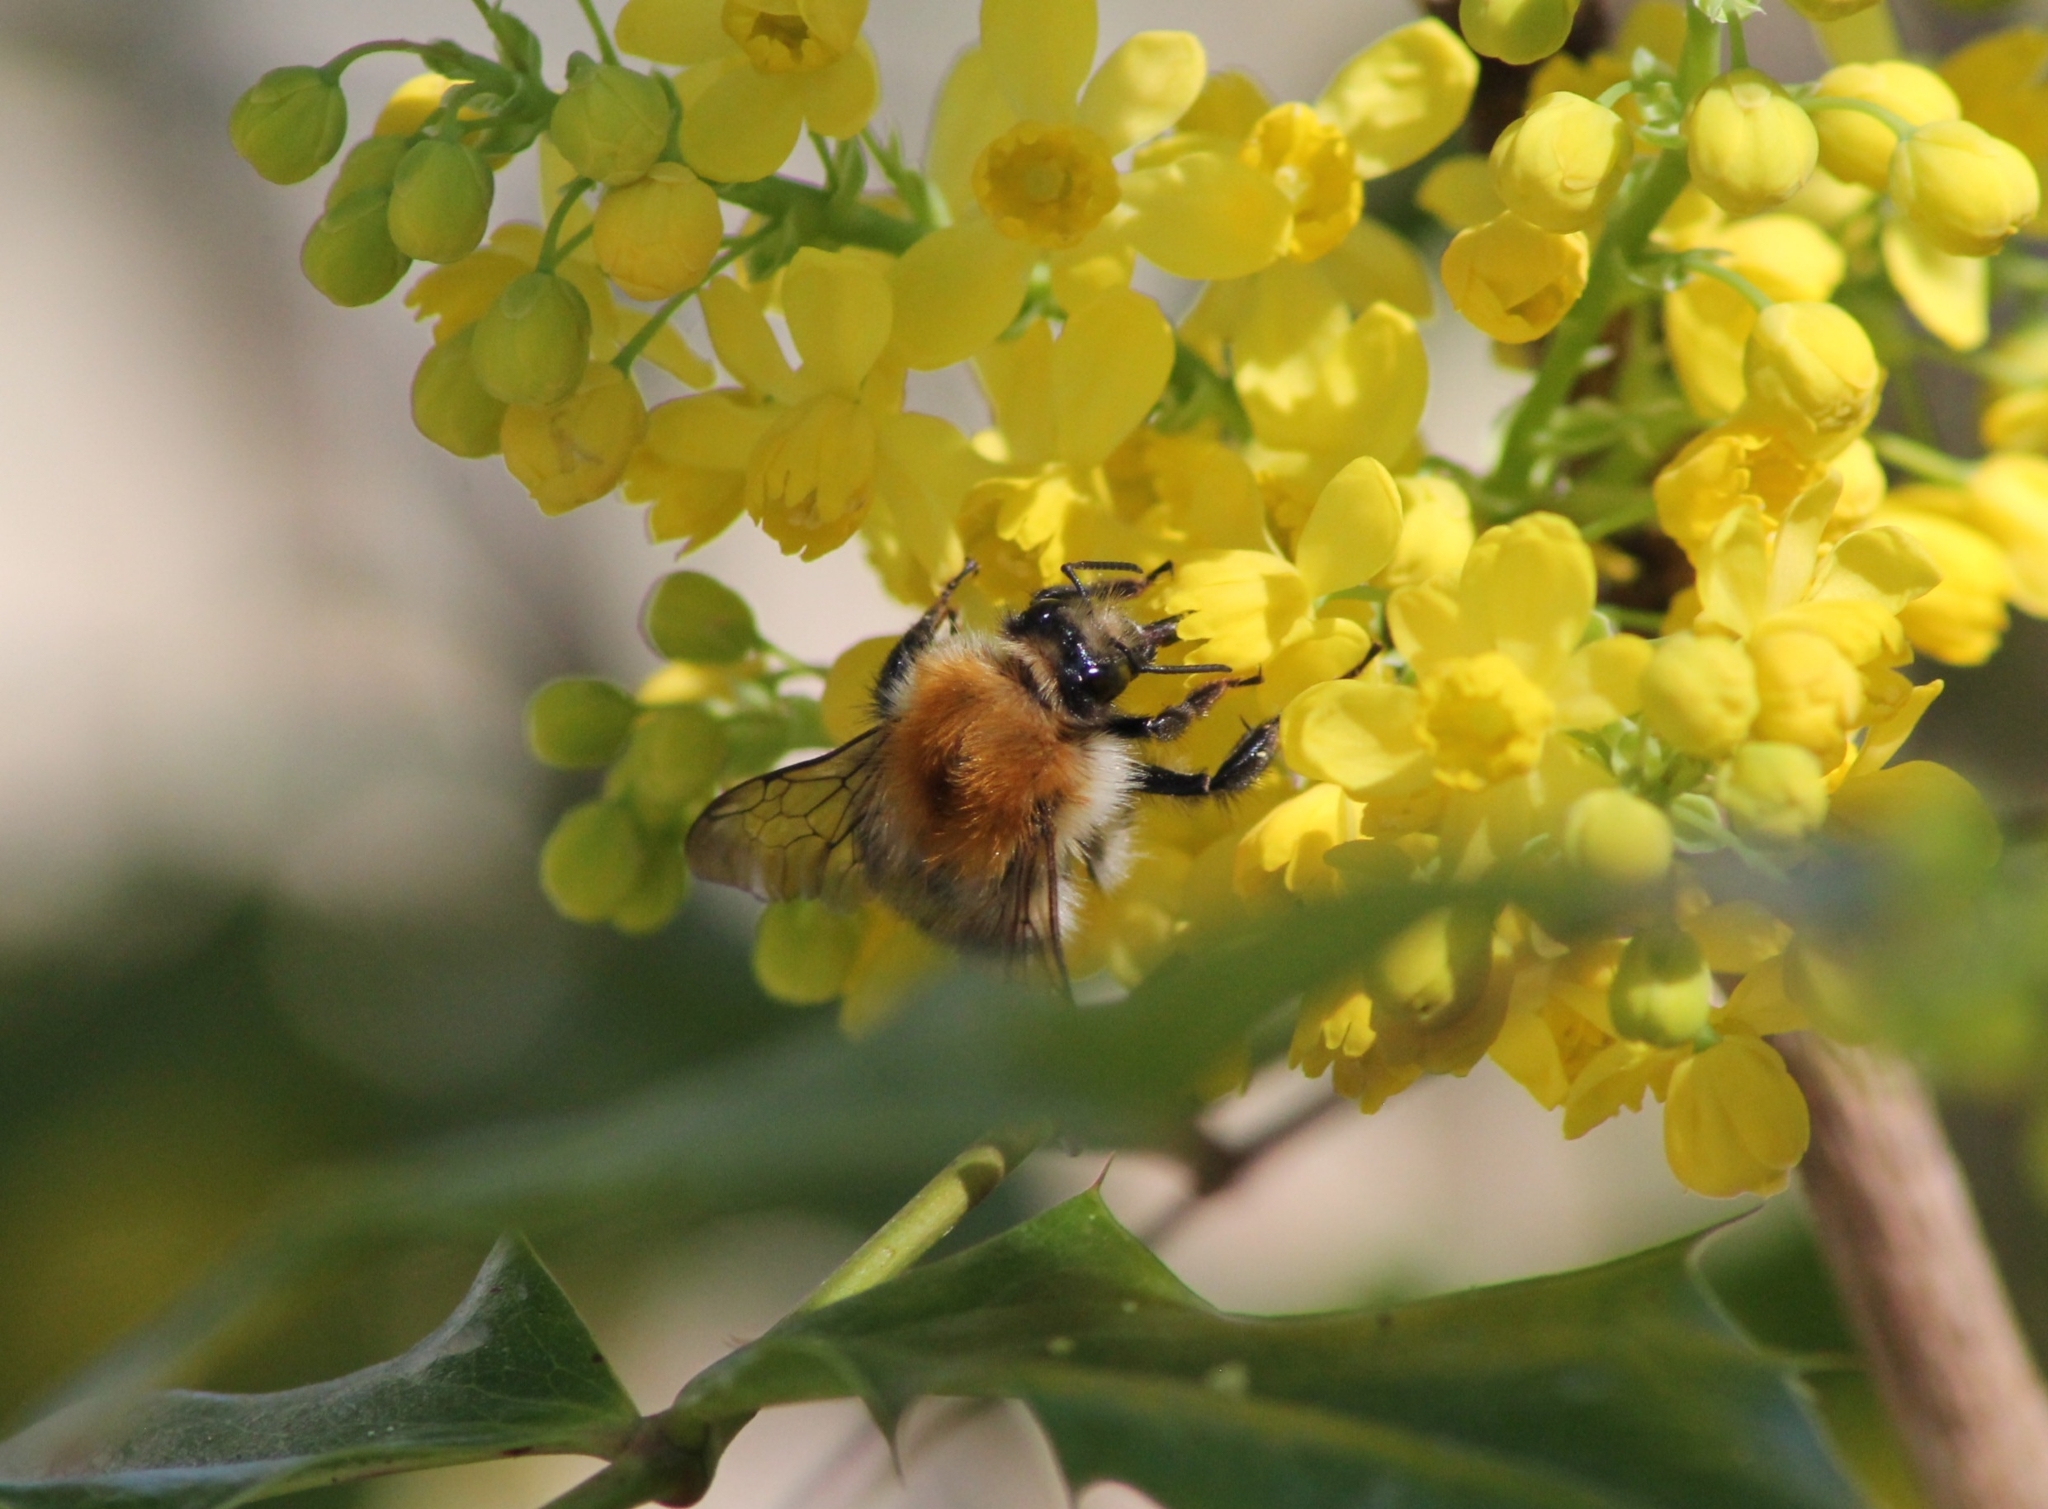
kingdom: Animalia
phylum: Arthropoda
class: Insecta
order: Hymenoptera
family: Apidae
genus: Bombus
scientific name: Bombus pascuorum
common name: Common carder bee
